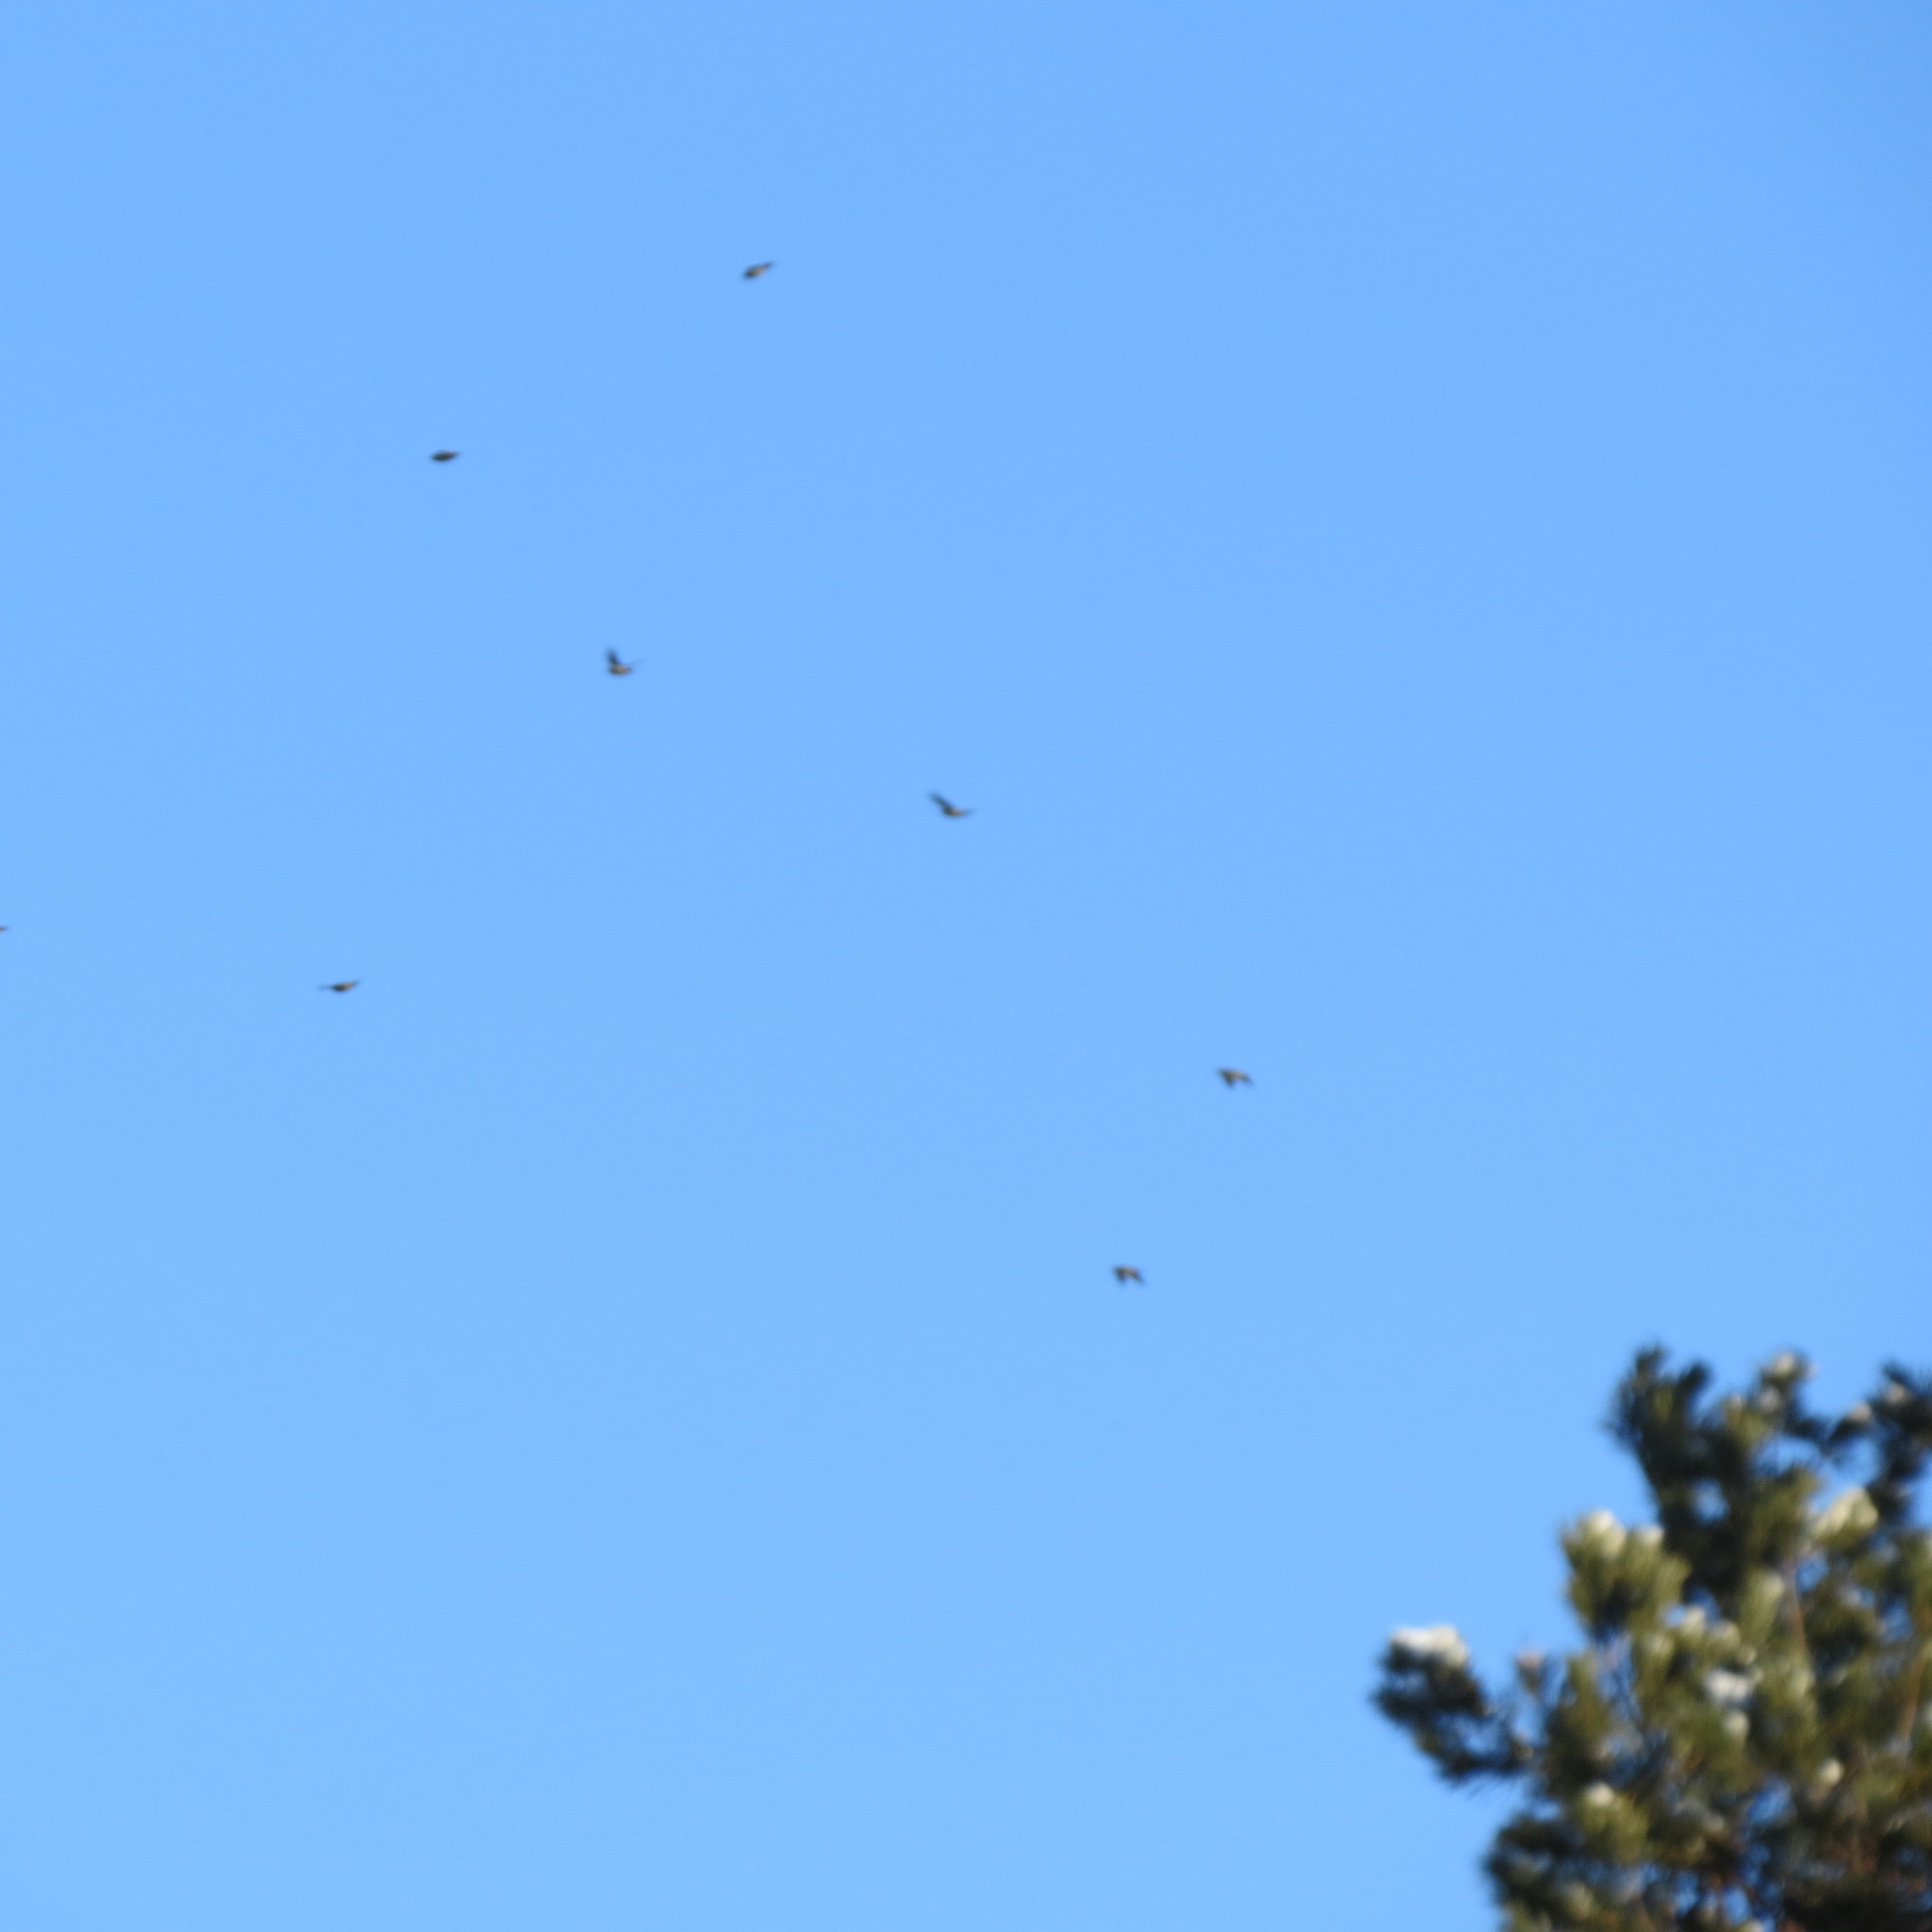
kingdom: Animalia
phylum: Chordata
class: Aves
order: Passeriformes
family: Bombycillidae
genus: Bombycilla
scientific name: Bombycilla garrulus
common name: Bohemian waxwing
